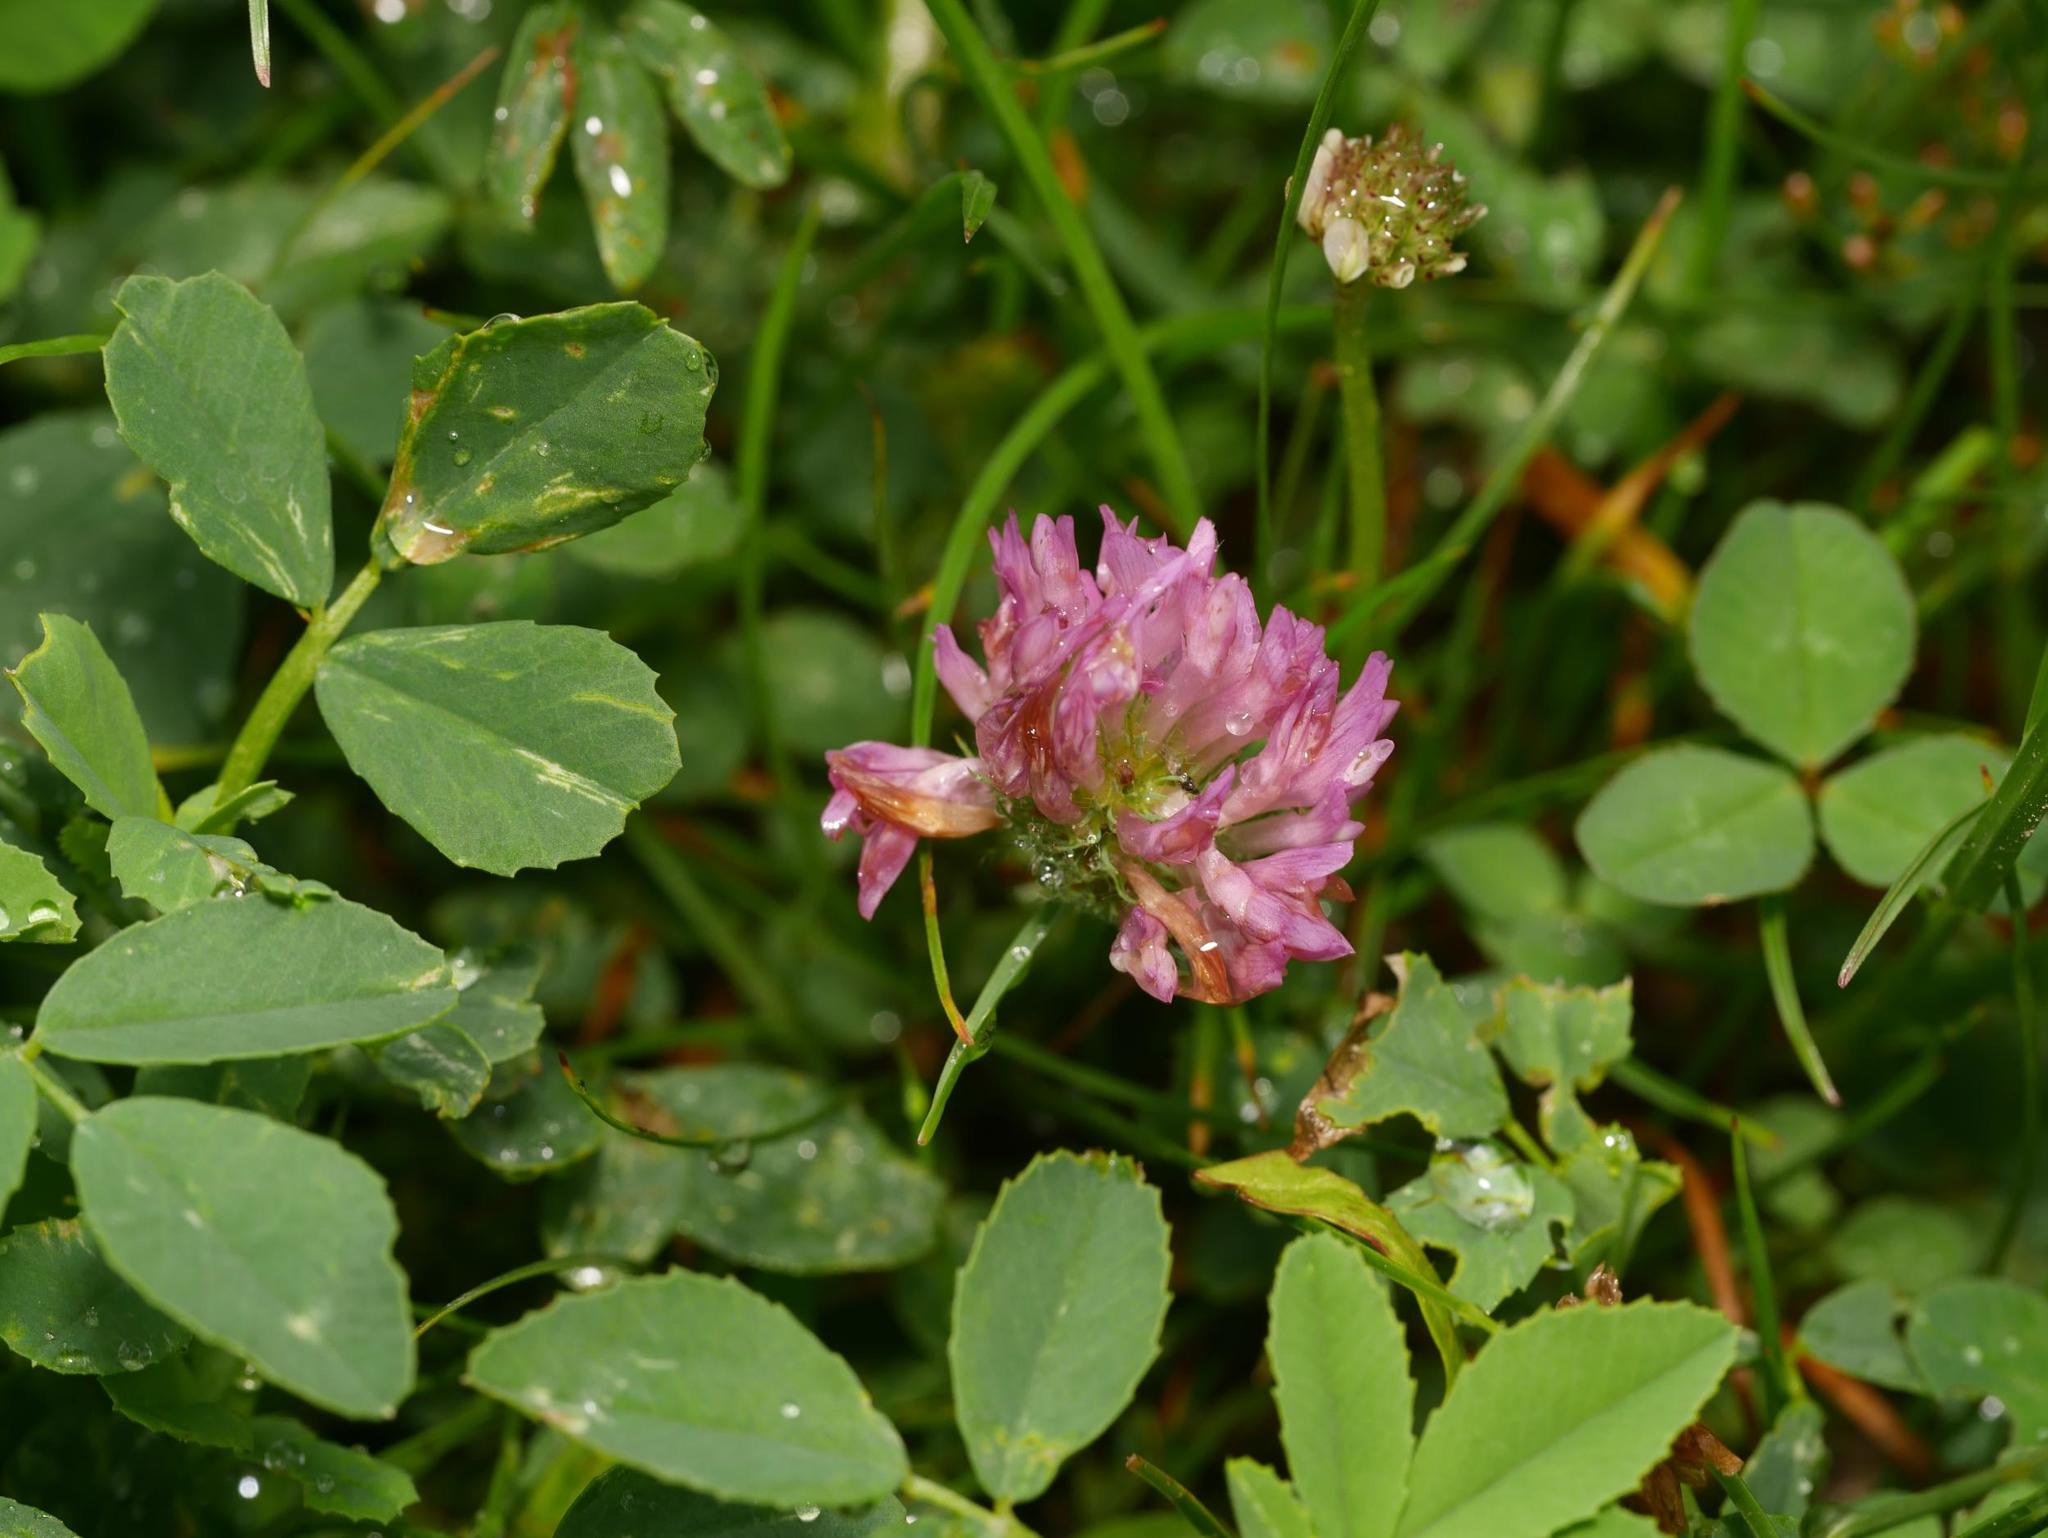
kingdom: Plantae
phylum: Tracheophyta
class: Magnoliopsida
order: Fabales
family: Fabaceae
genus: Trifolium
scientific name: Trifolium pratense
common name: Red clover
